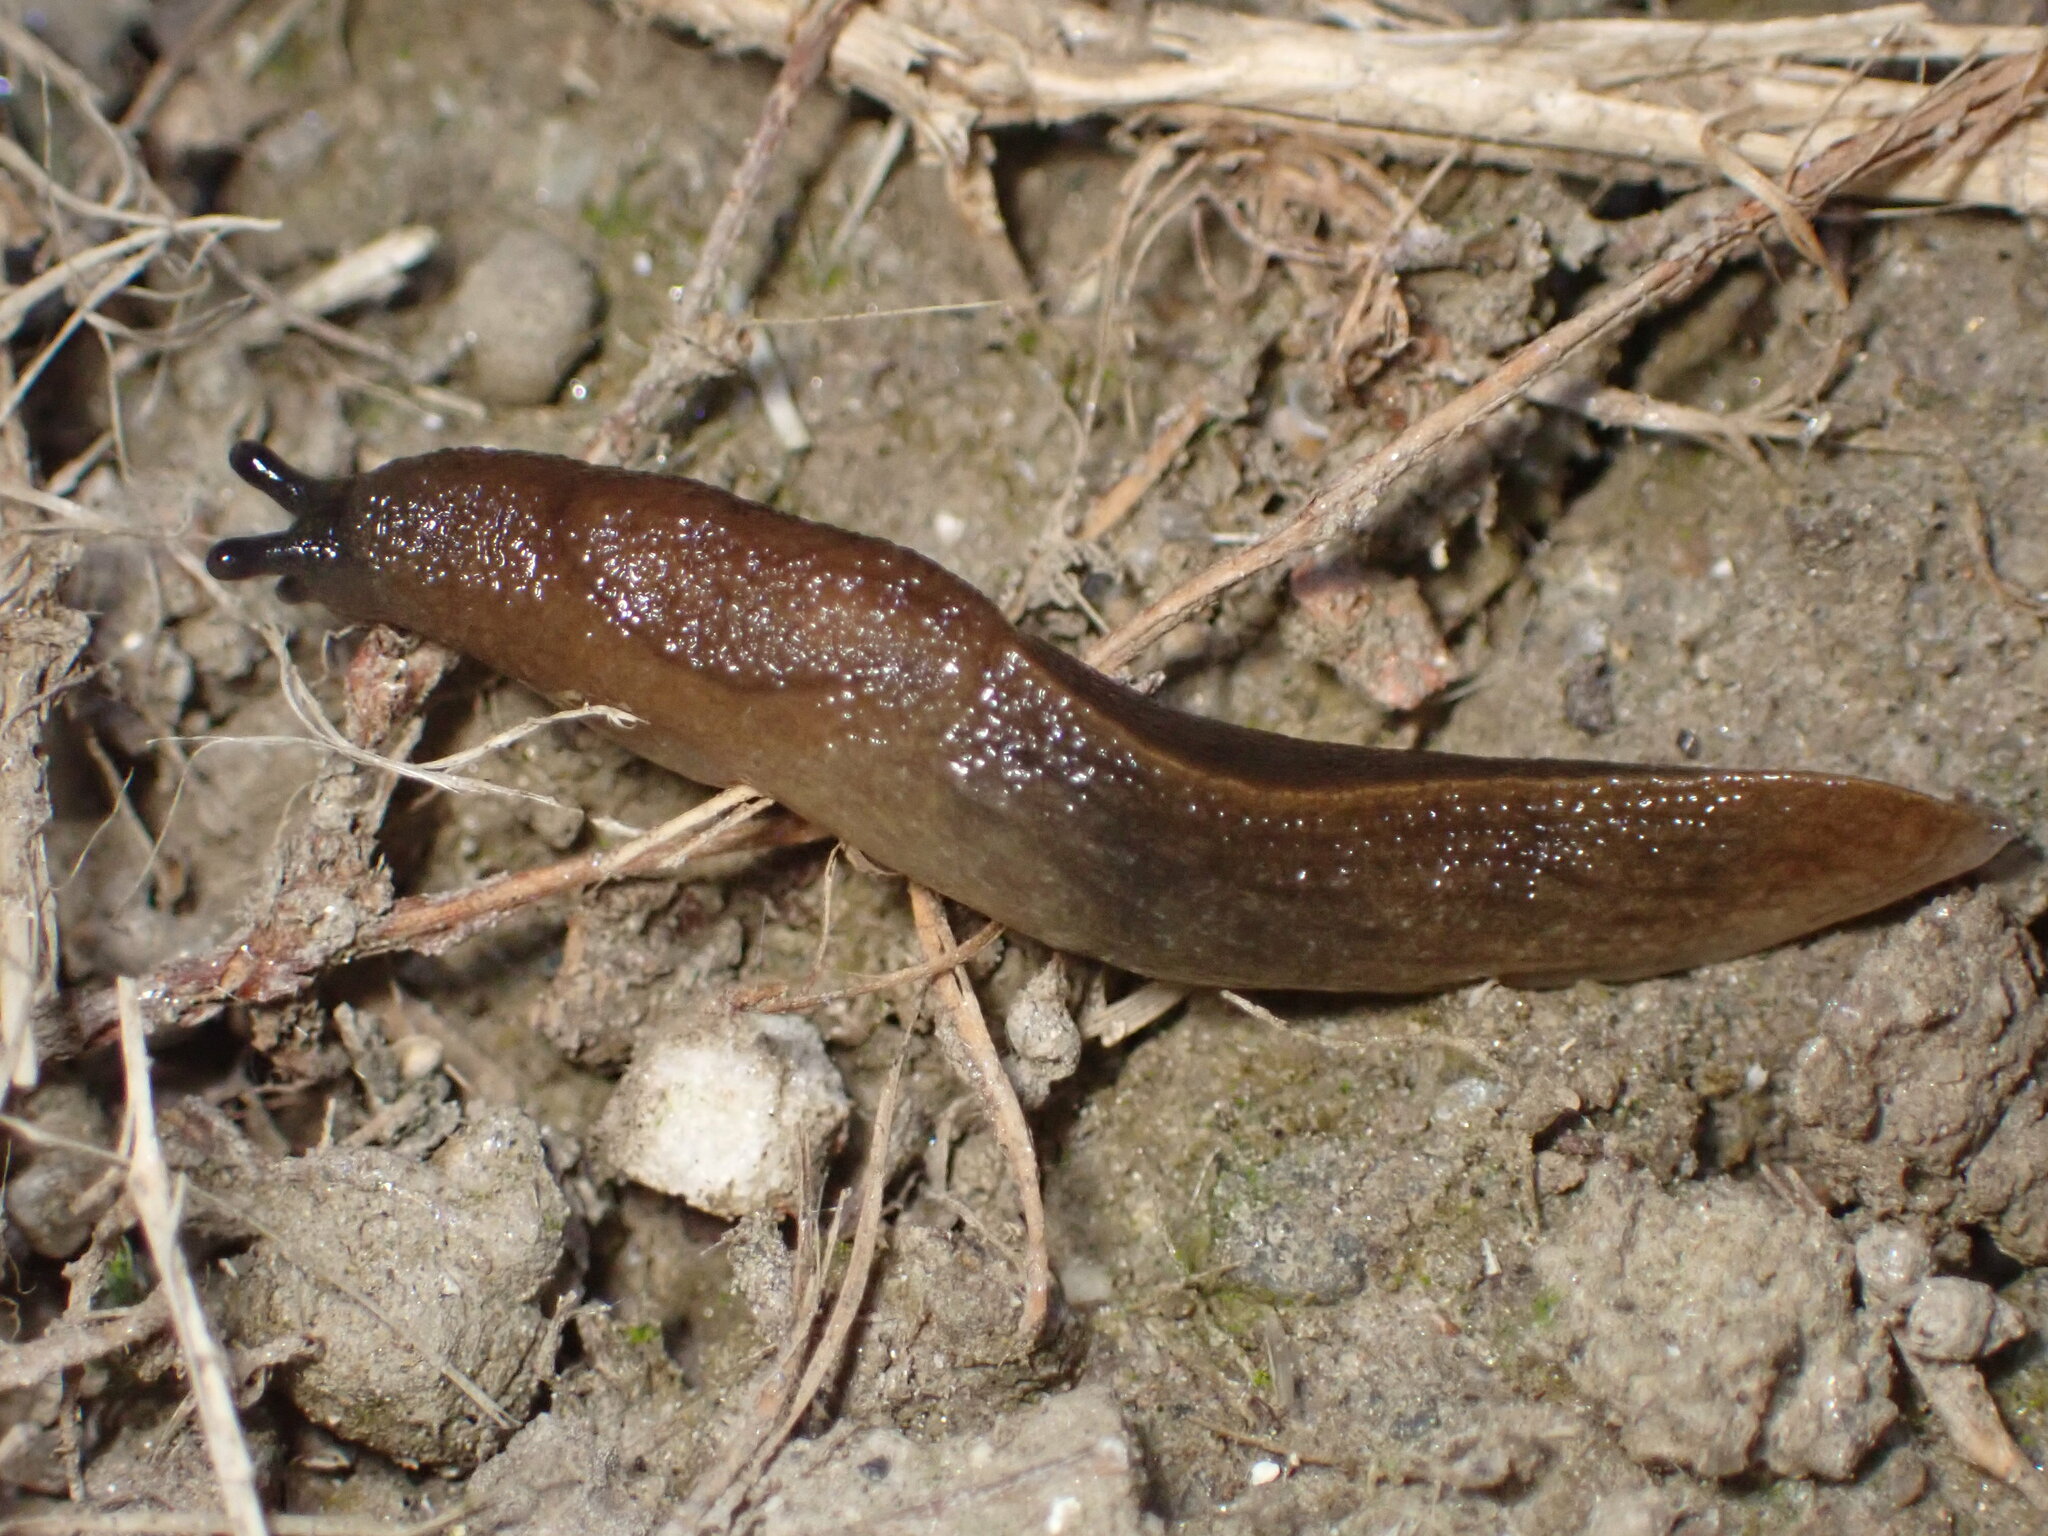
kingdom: Animalia
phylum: Mollusca
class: Gastropoda
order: Stylommatophora
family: Milacidae
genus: Milax
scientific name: Milax gagates
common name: Greenhouse slug
